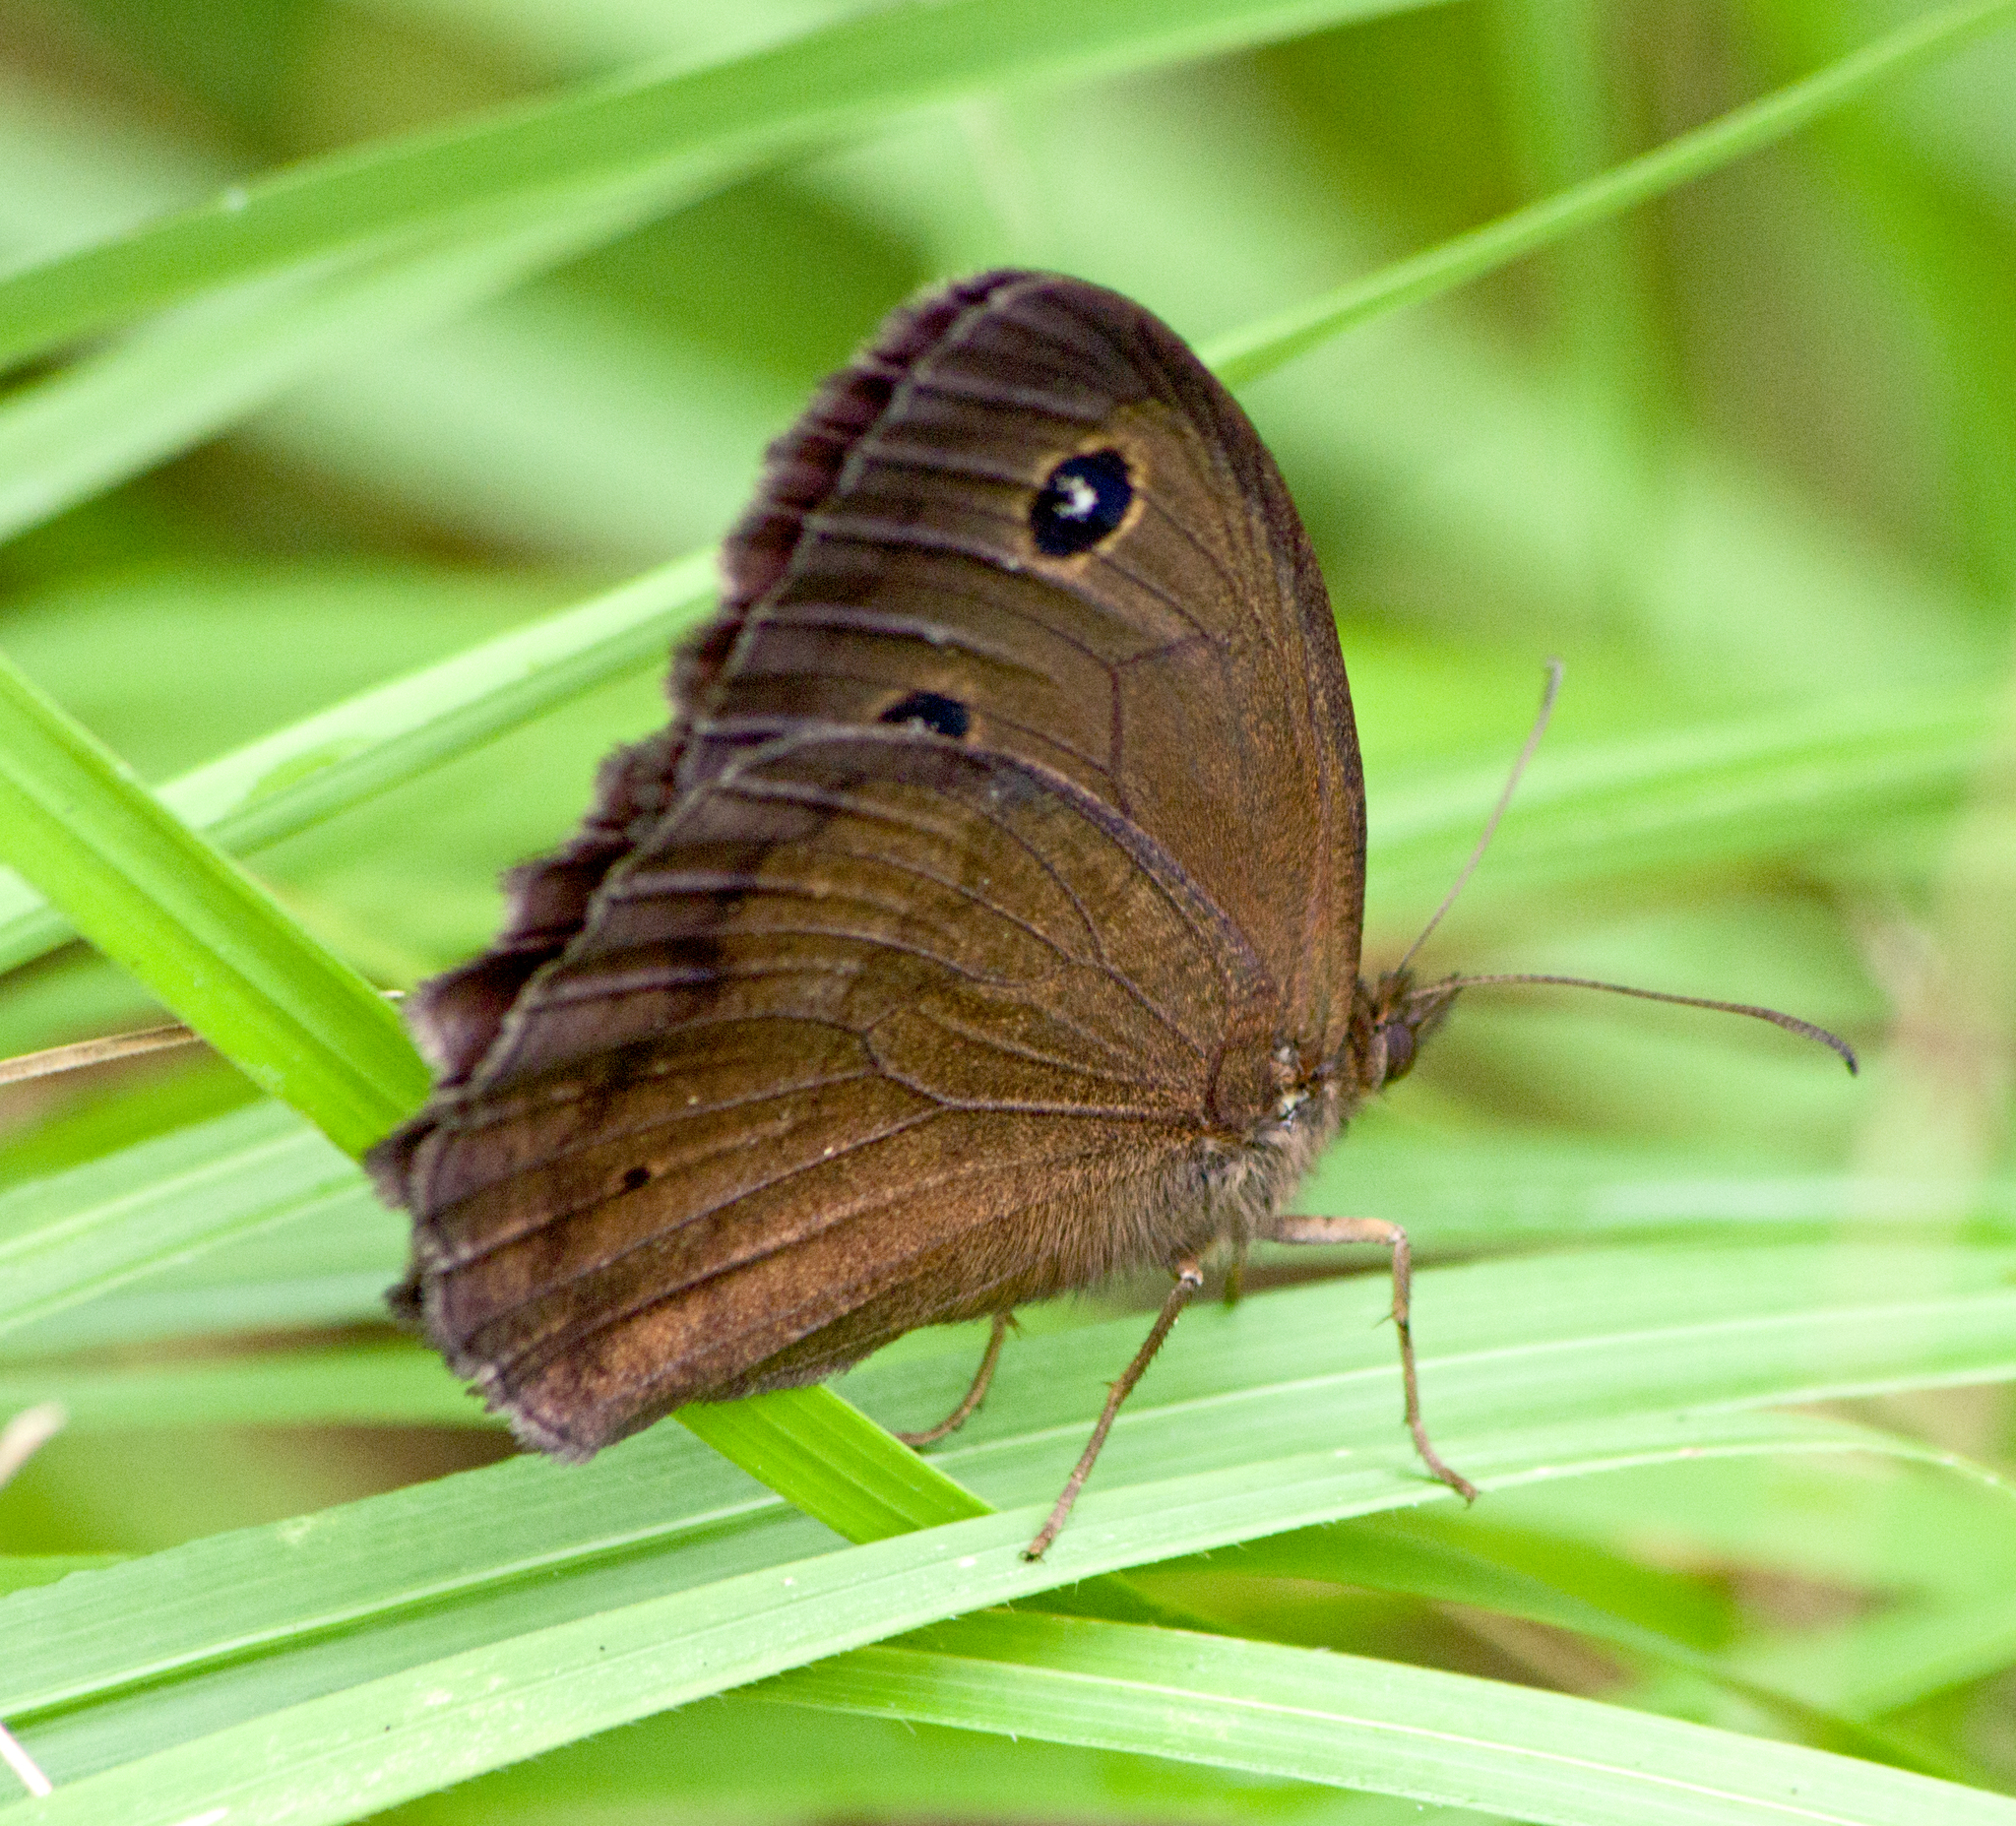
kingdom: Animalia
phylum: Arthropoda
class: Insecta
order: Lepidoptera
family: Nymphalidae
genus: Minois
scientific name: Minois dryas
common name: Dryad
